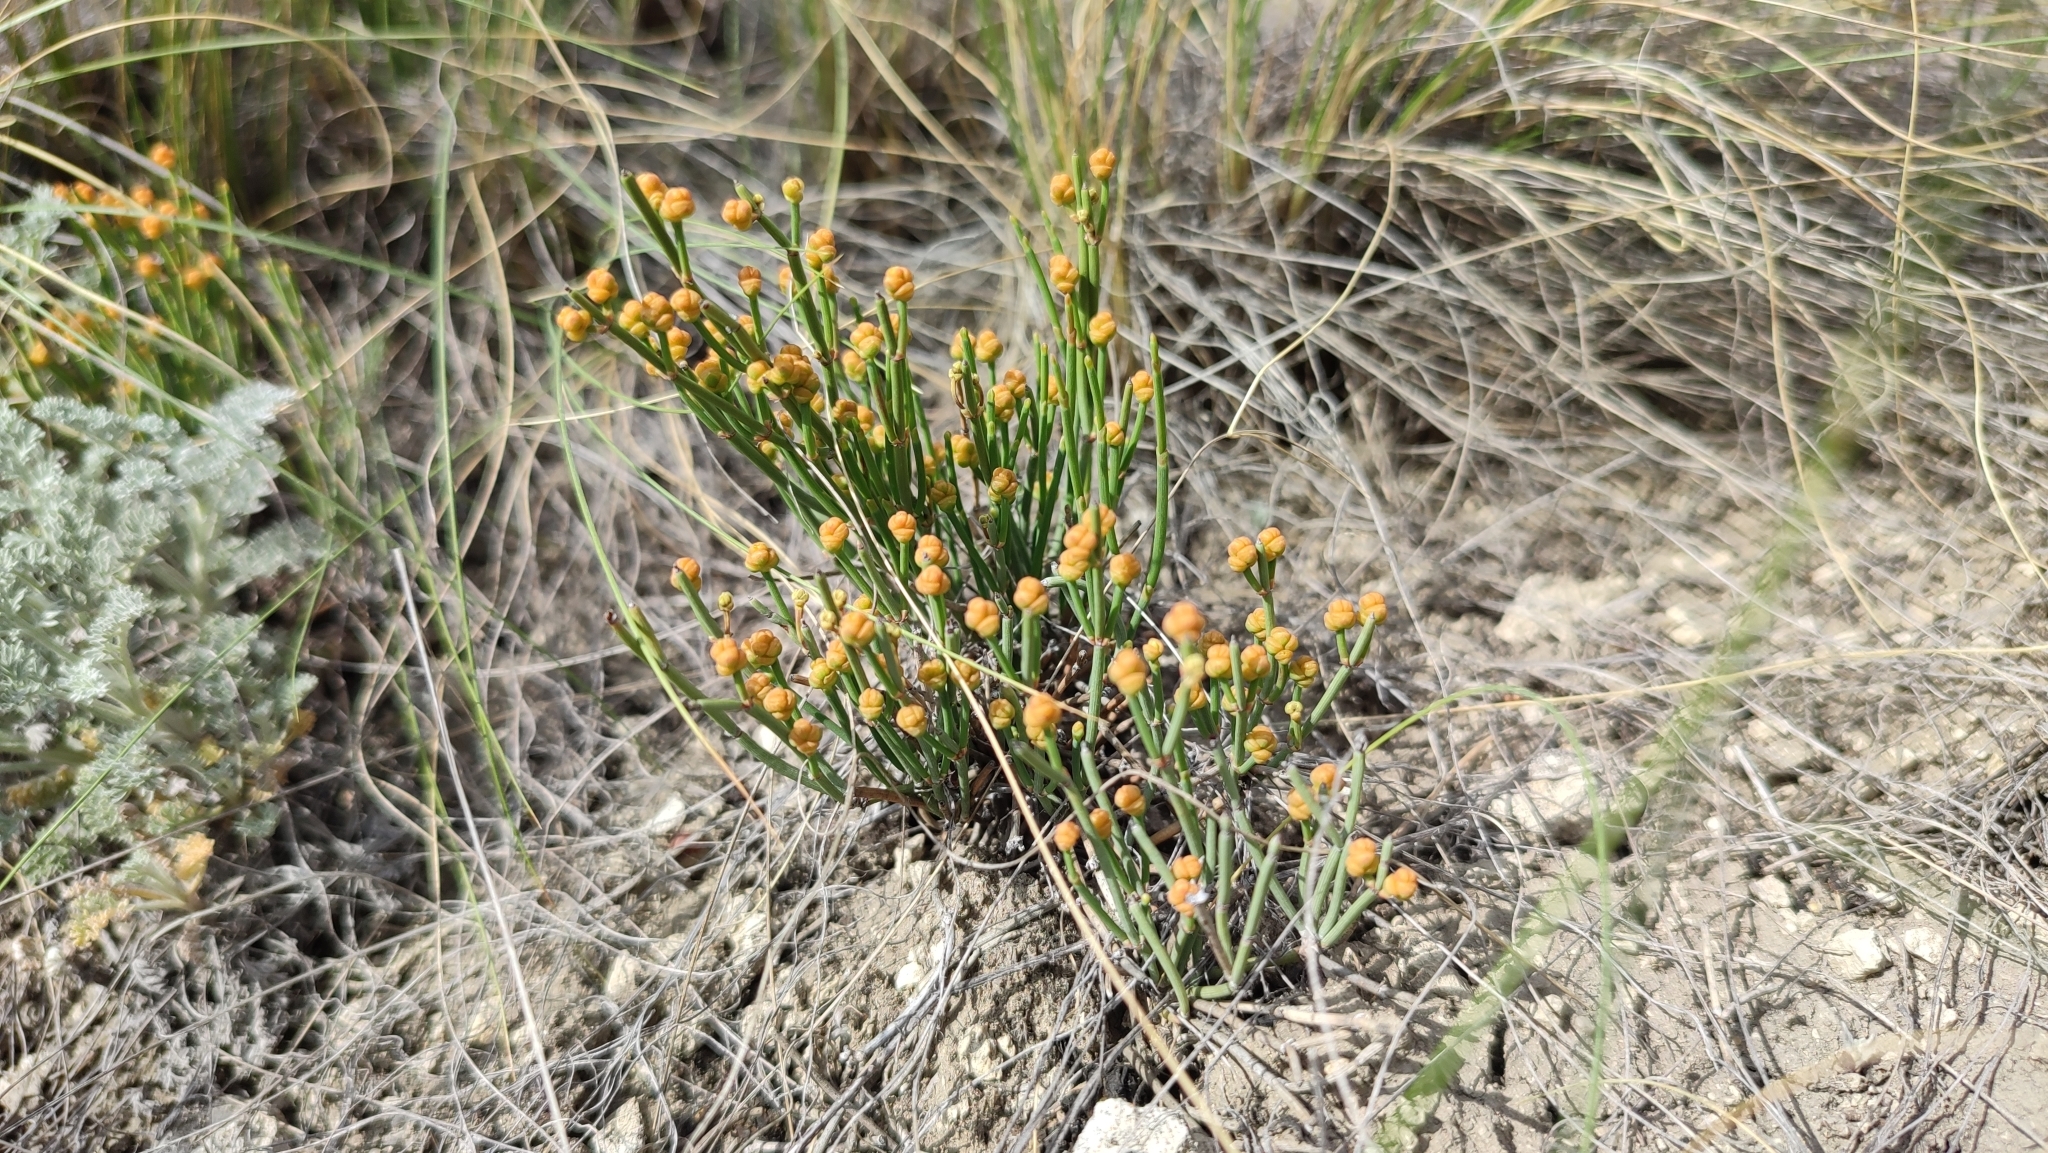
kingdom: Plantae
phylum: Tracheophyta
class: Gnetopsida
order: Ephedrales
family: Ephedraceae
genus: Ephedra
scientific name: Ephedra distachya
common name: Sea grape
